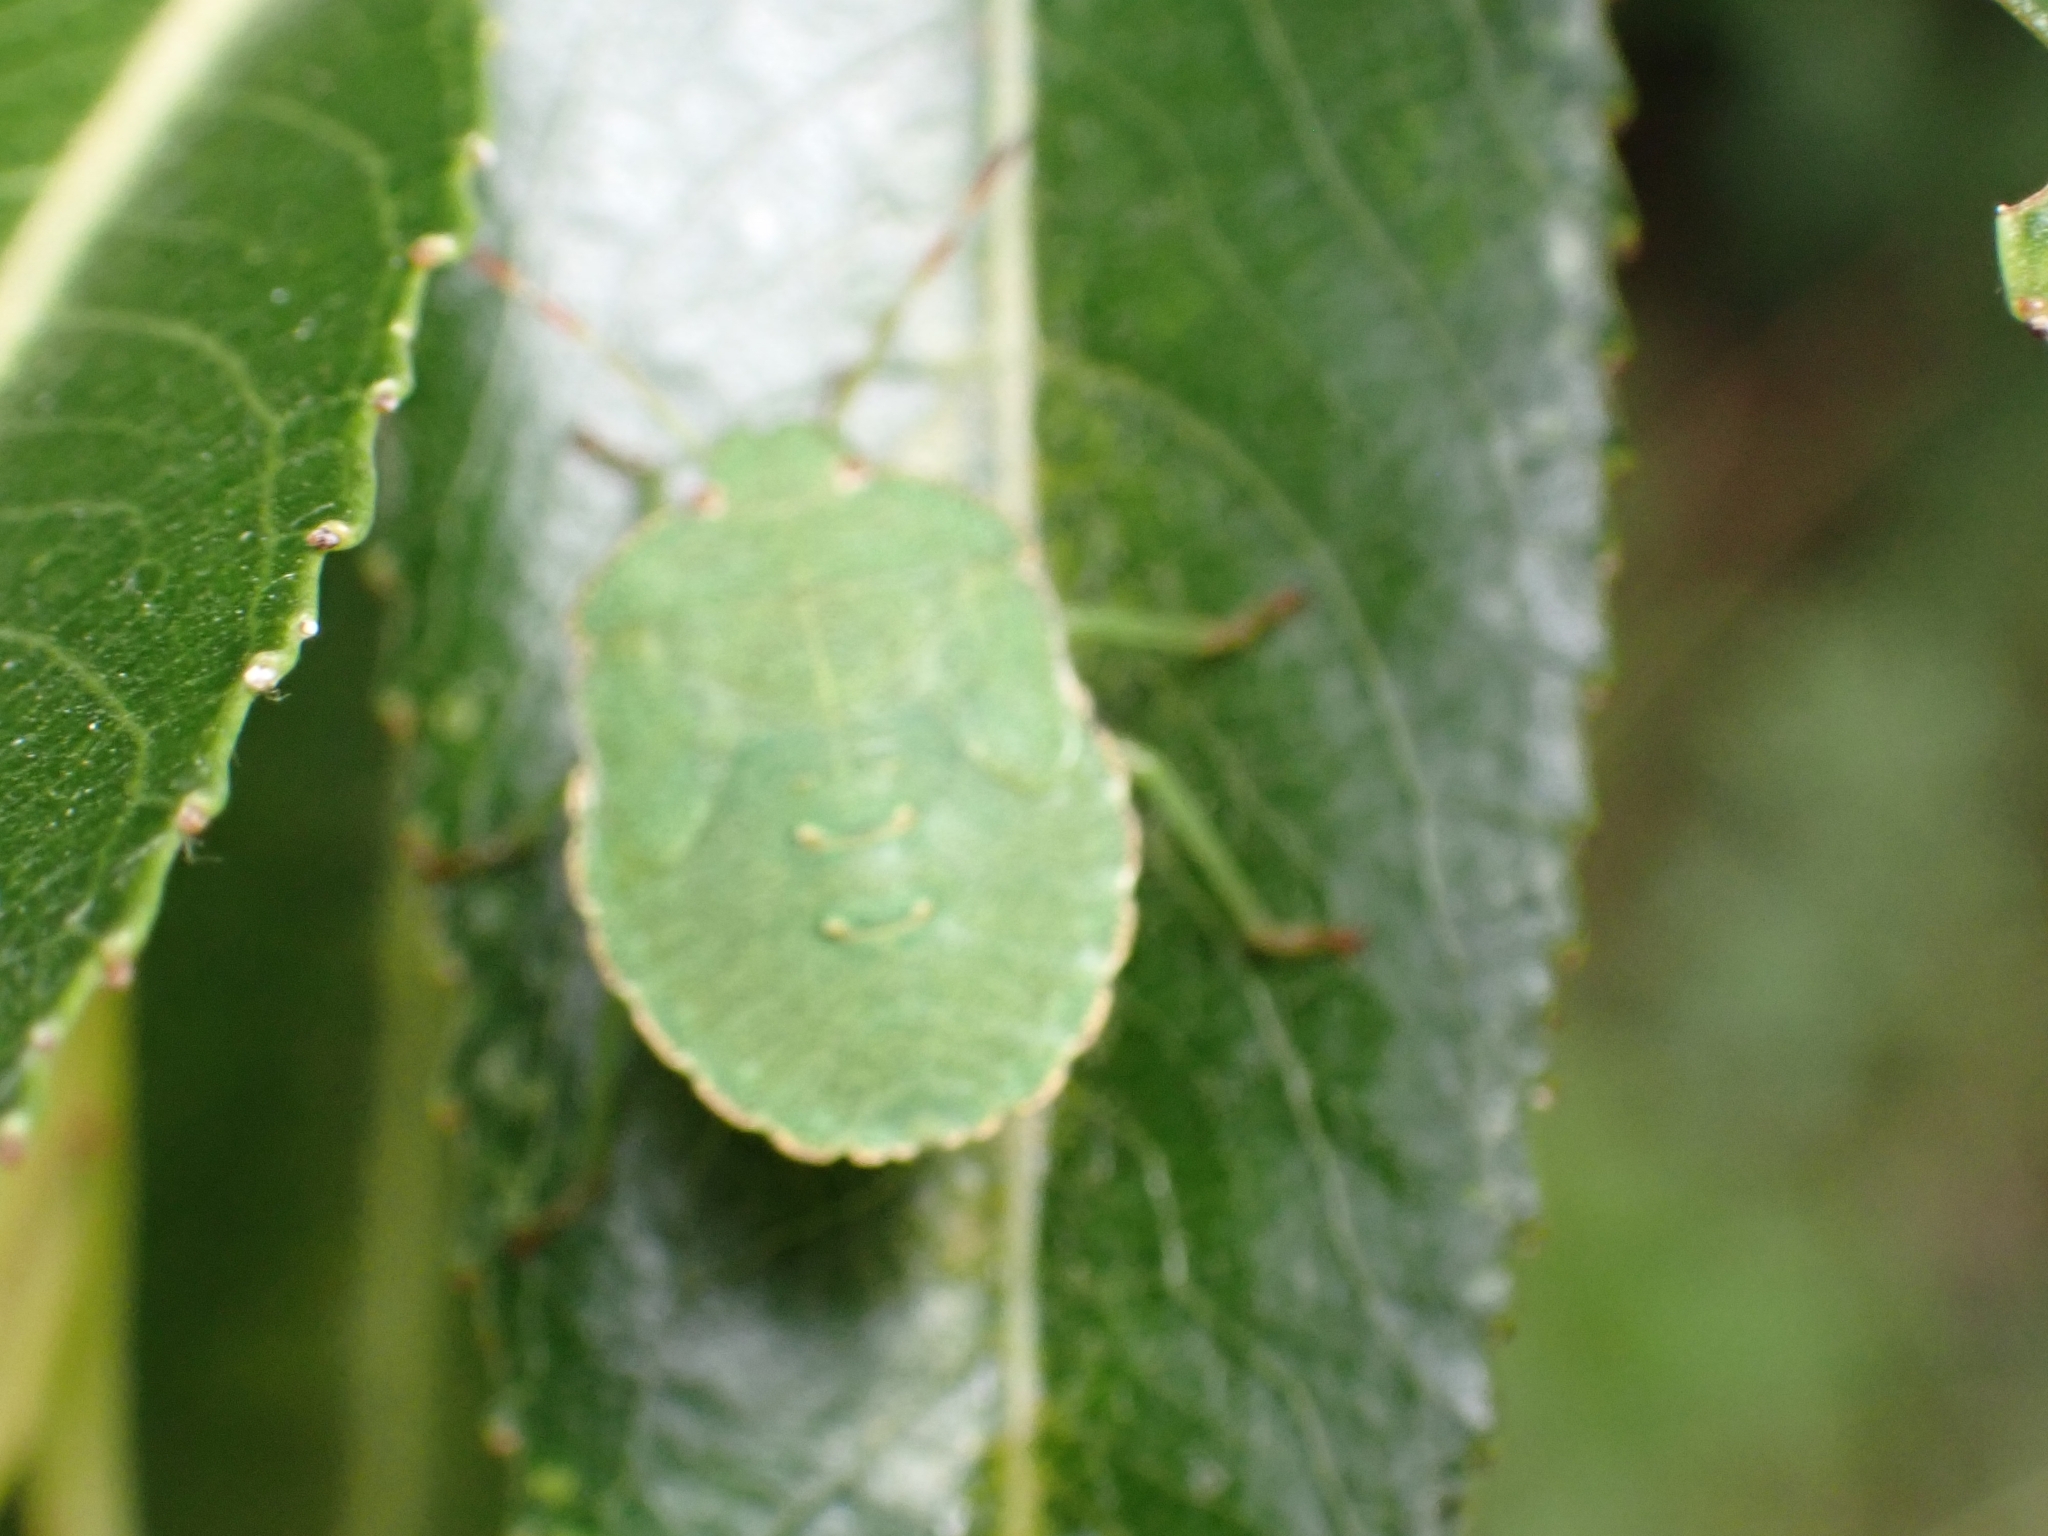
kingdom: Animalia
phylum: Arthropoda
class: Insecta
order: Hemiptera
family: Pentatomidae
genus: Palomena
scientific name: Palomena prasina
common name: Green shieldbug
